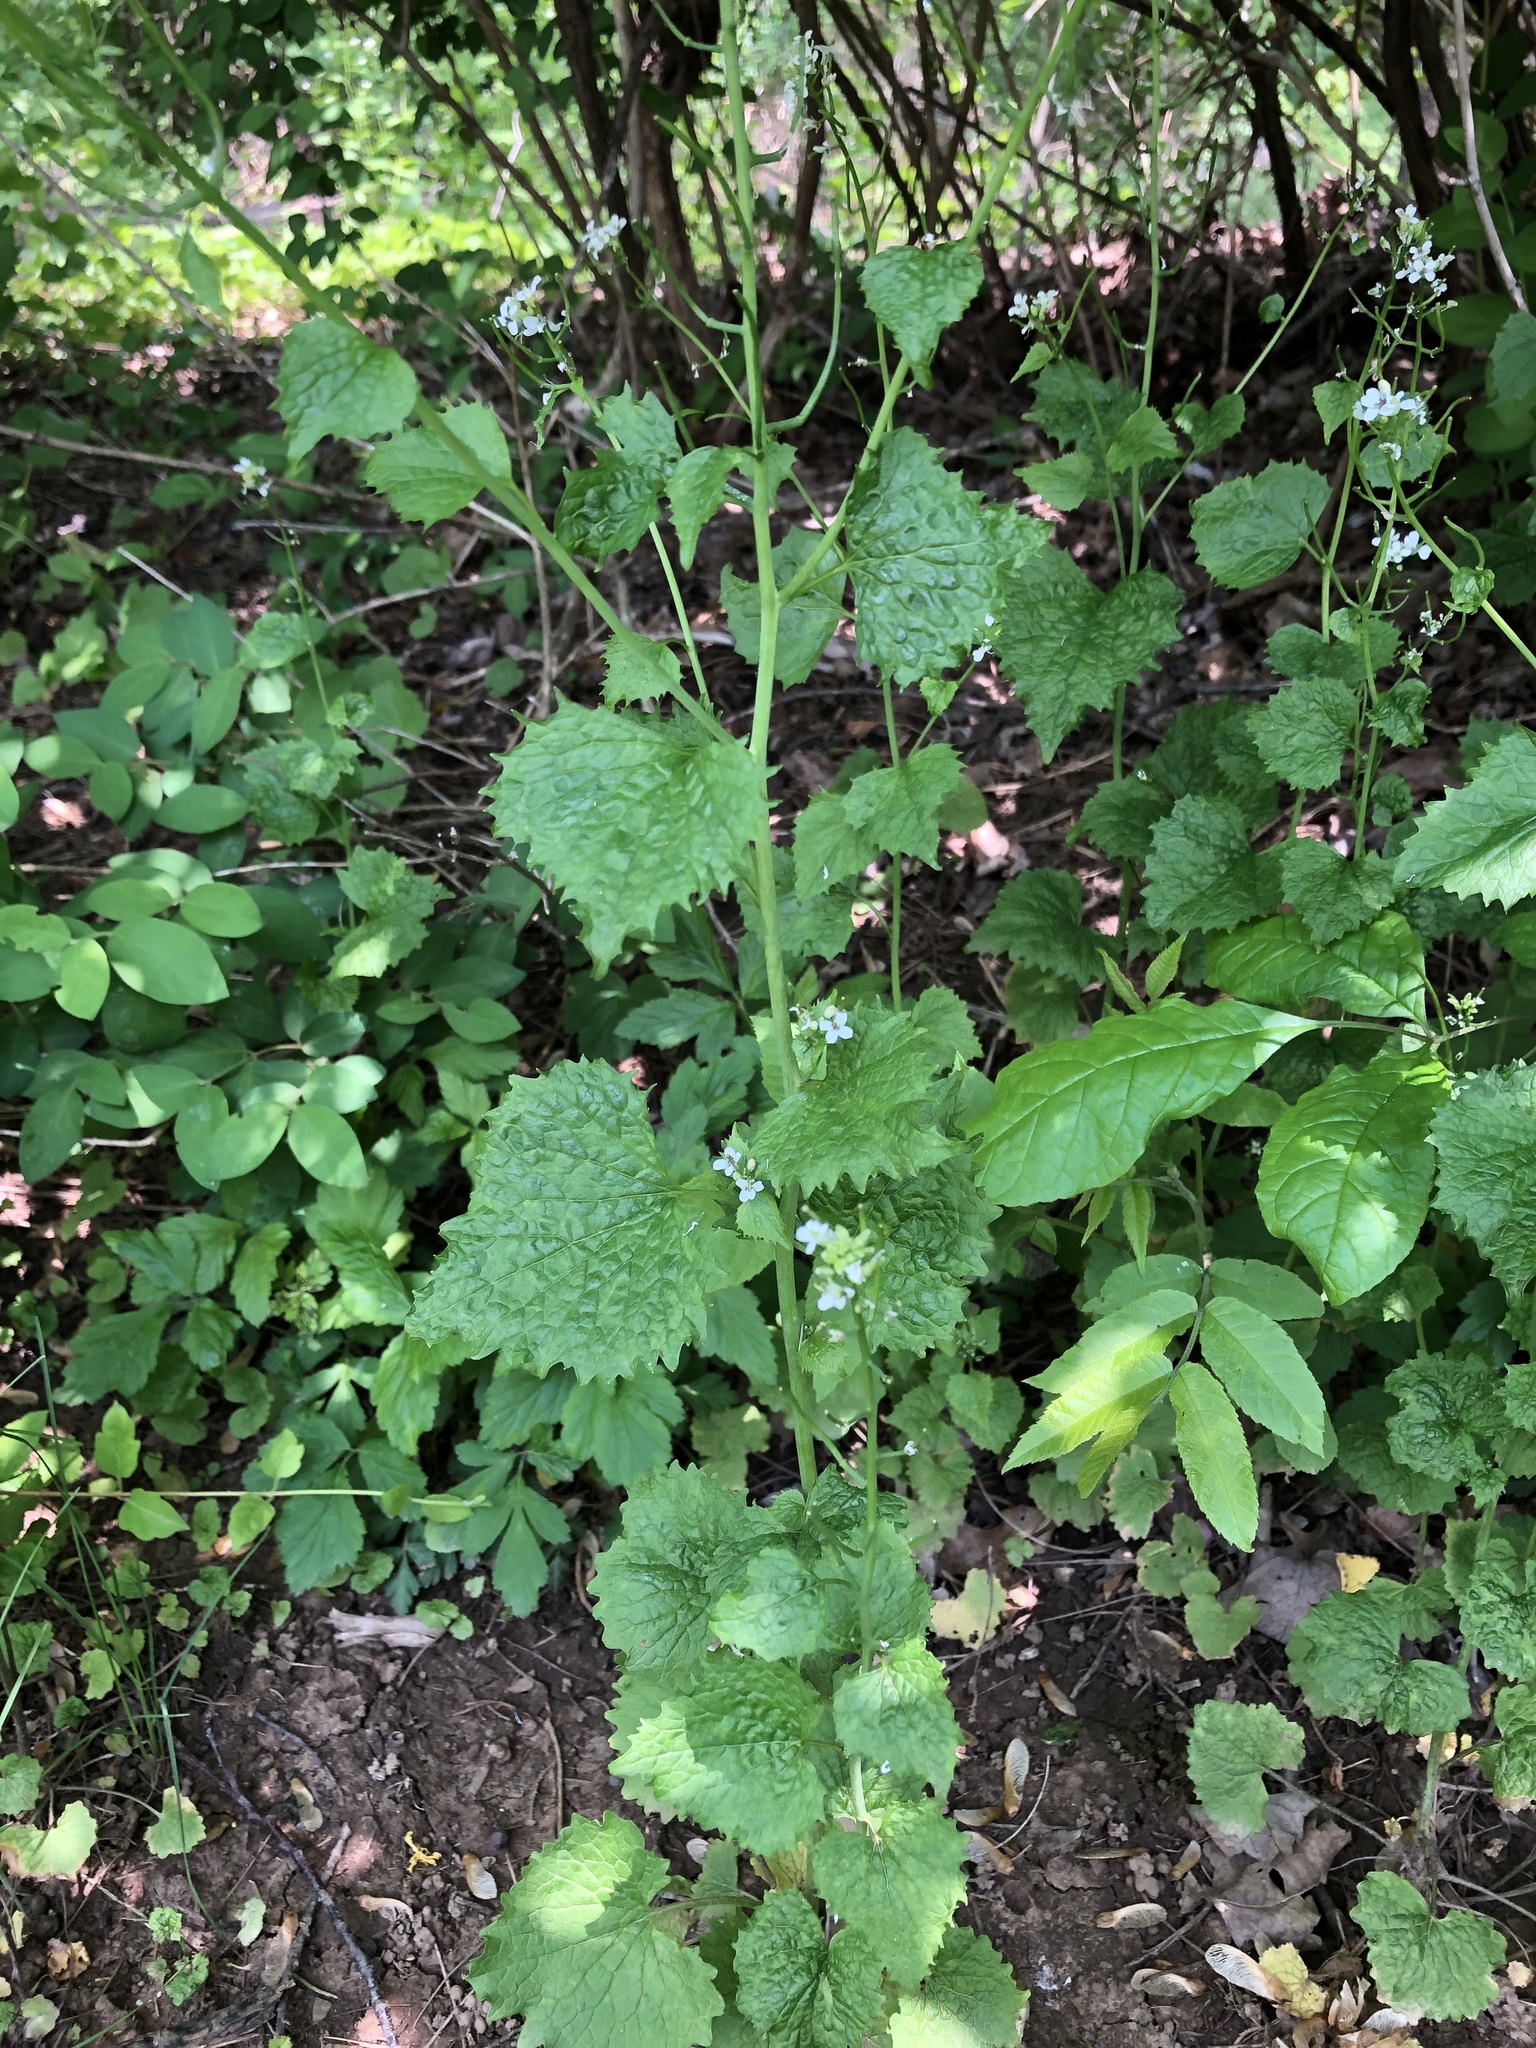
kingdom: Plantae
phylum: Tracheophyta
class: Magnoliopsida
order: Brassicales
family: Brassicaceae
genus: Alliaria
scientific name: Alliaria petiolata
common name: Garlic mustard
